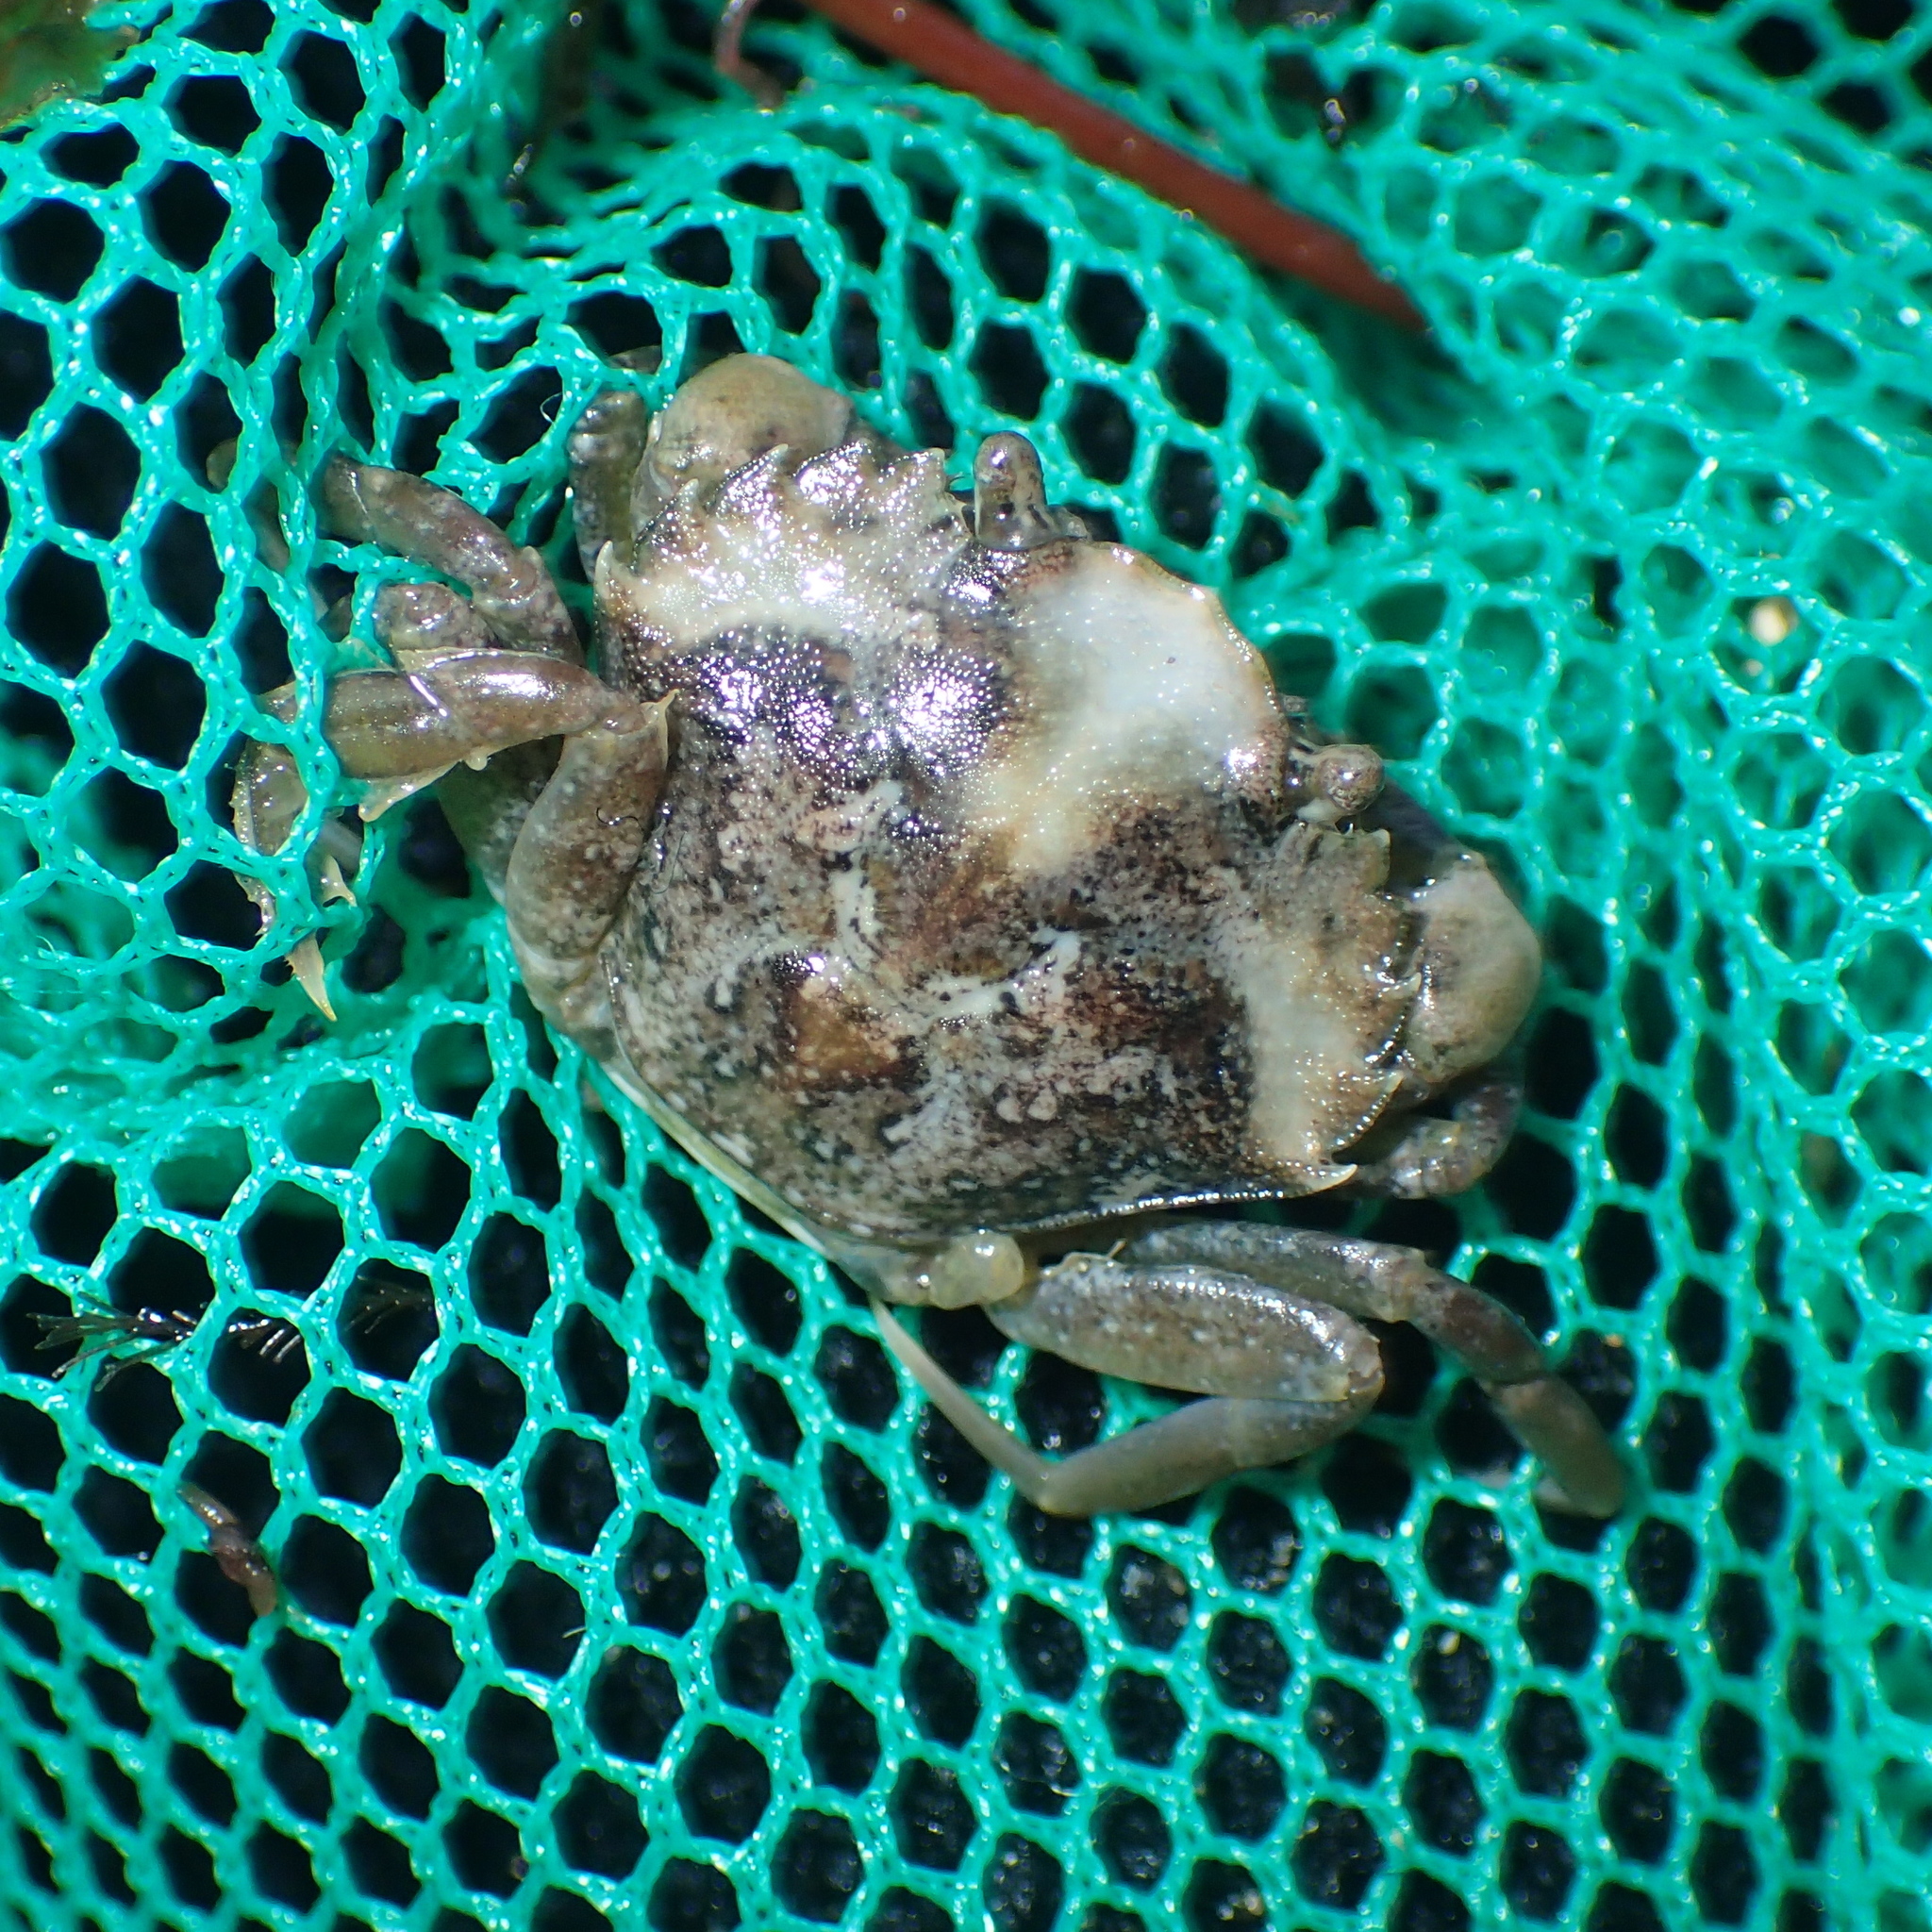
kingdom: Animalia
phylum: Arthropoda
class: Malacostraca
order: Decapoda
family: Carcinidae
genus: Carcinus
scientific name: Carcinus maenas
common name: European green crab
